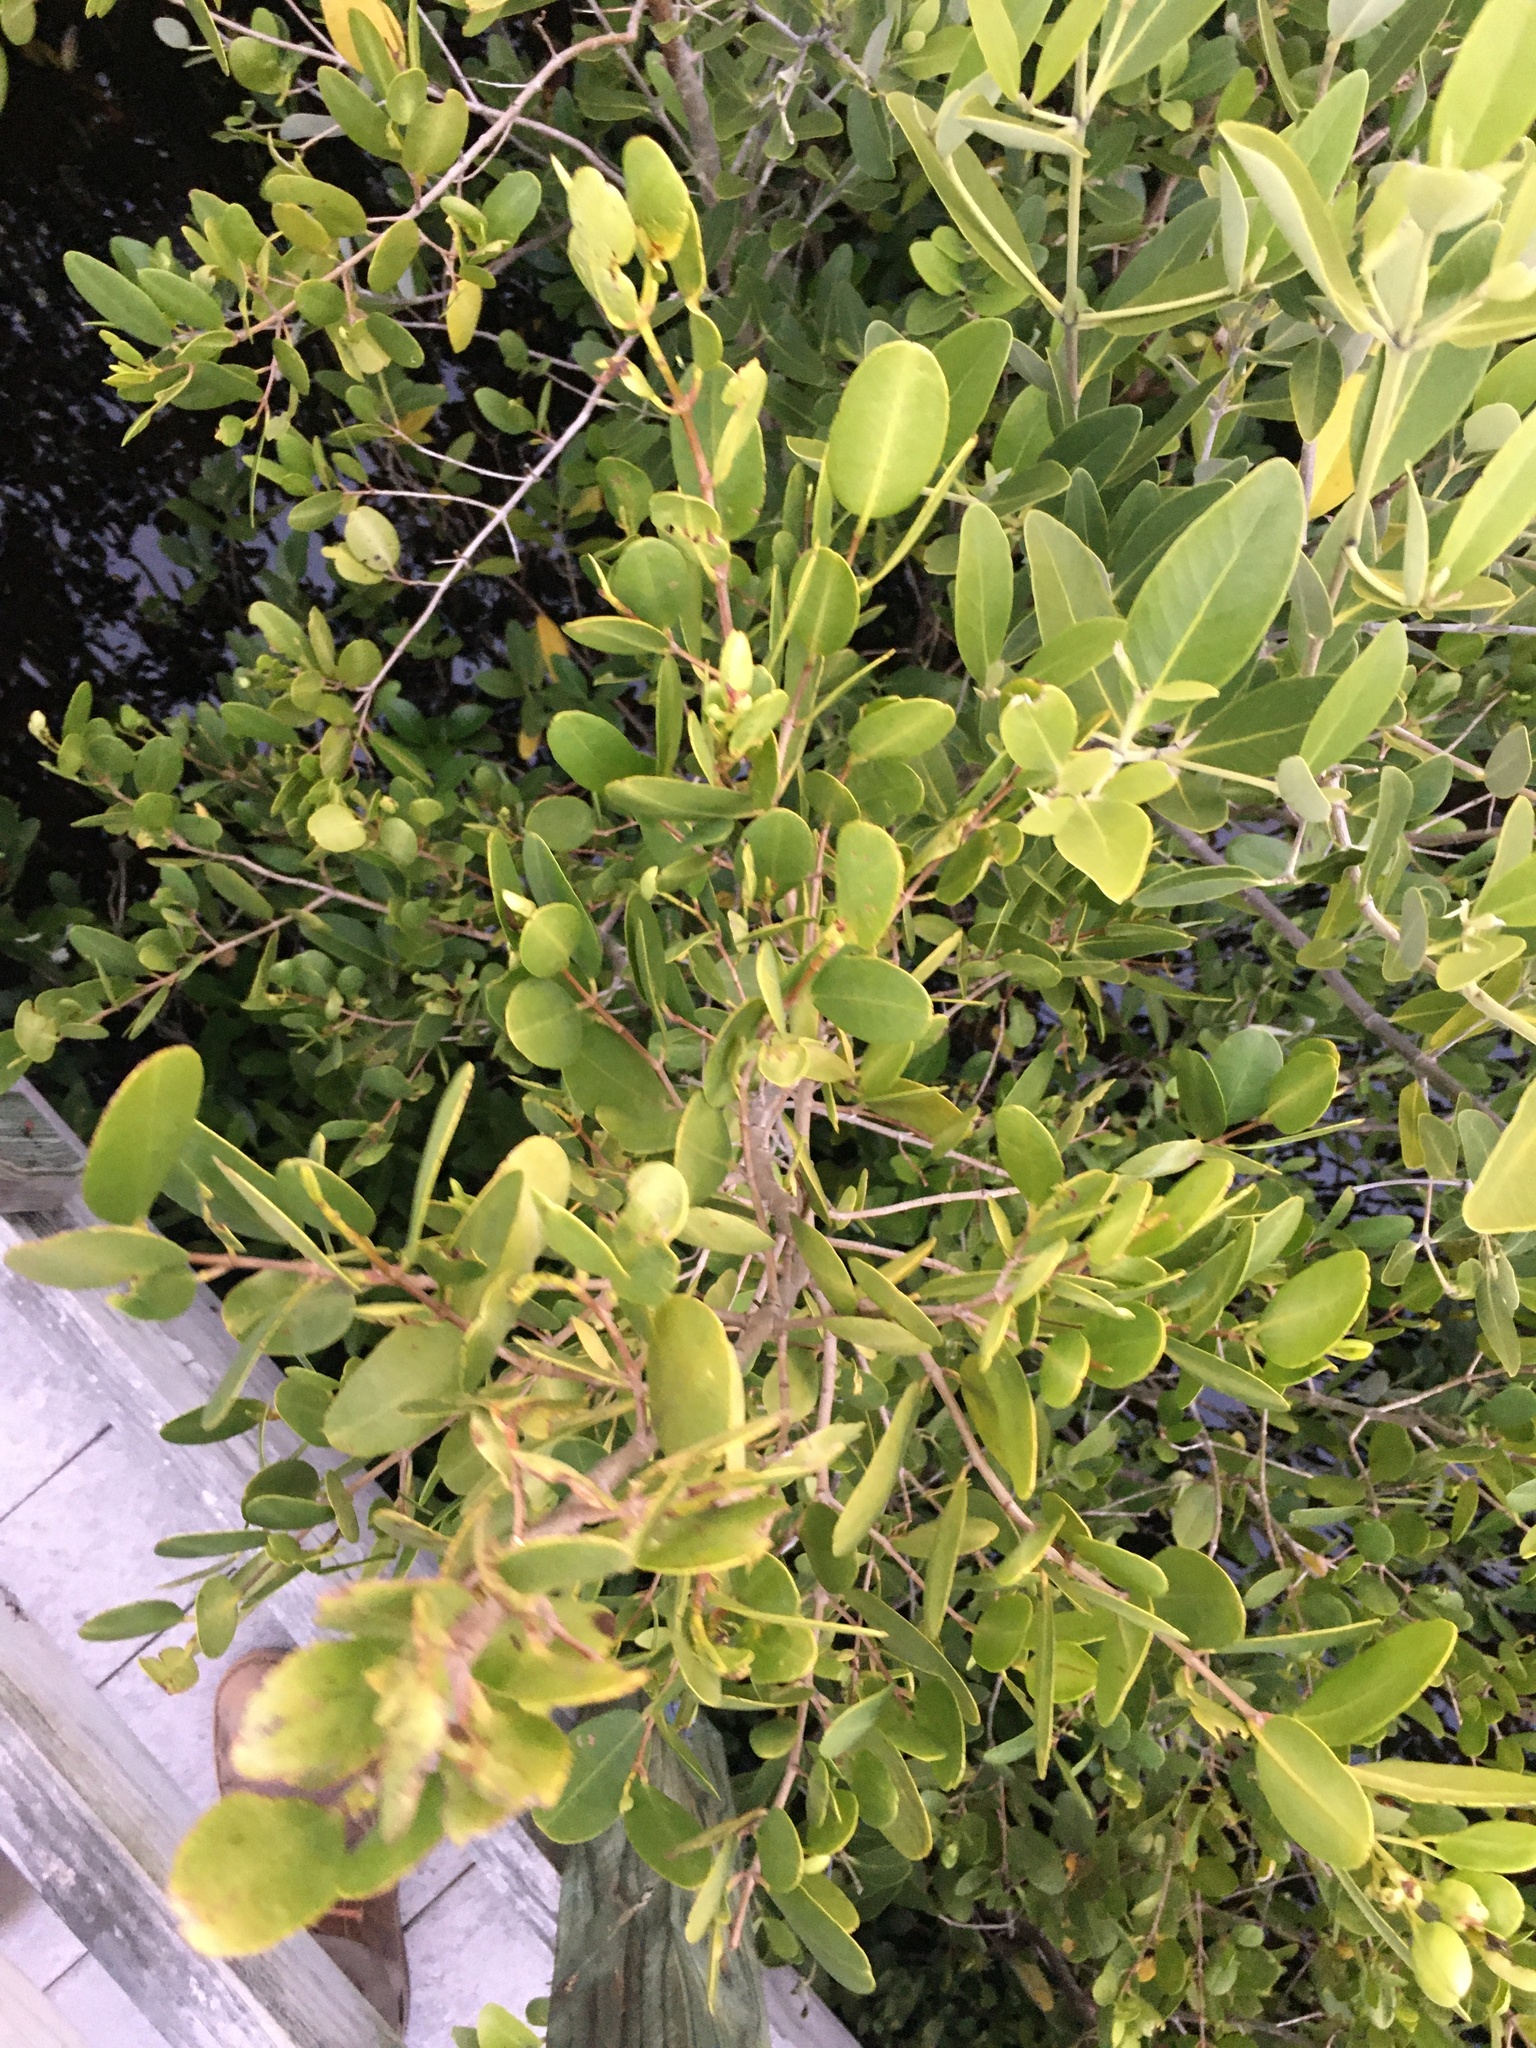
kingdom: Plantae
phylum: Tracheophyta
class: Magnoliopsida
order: Myrtales
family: Combretaceae
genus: Laguncularia
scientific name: Laguncularia racemosa
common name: White mangrove
